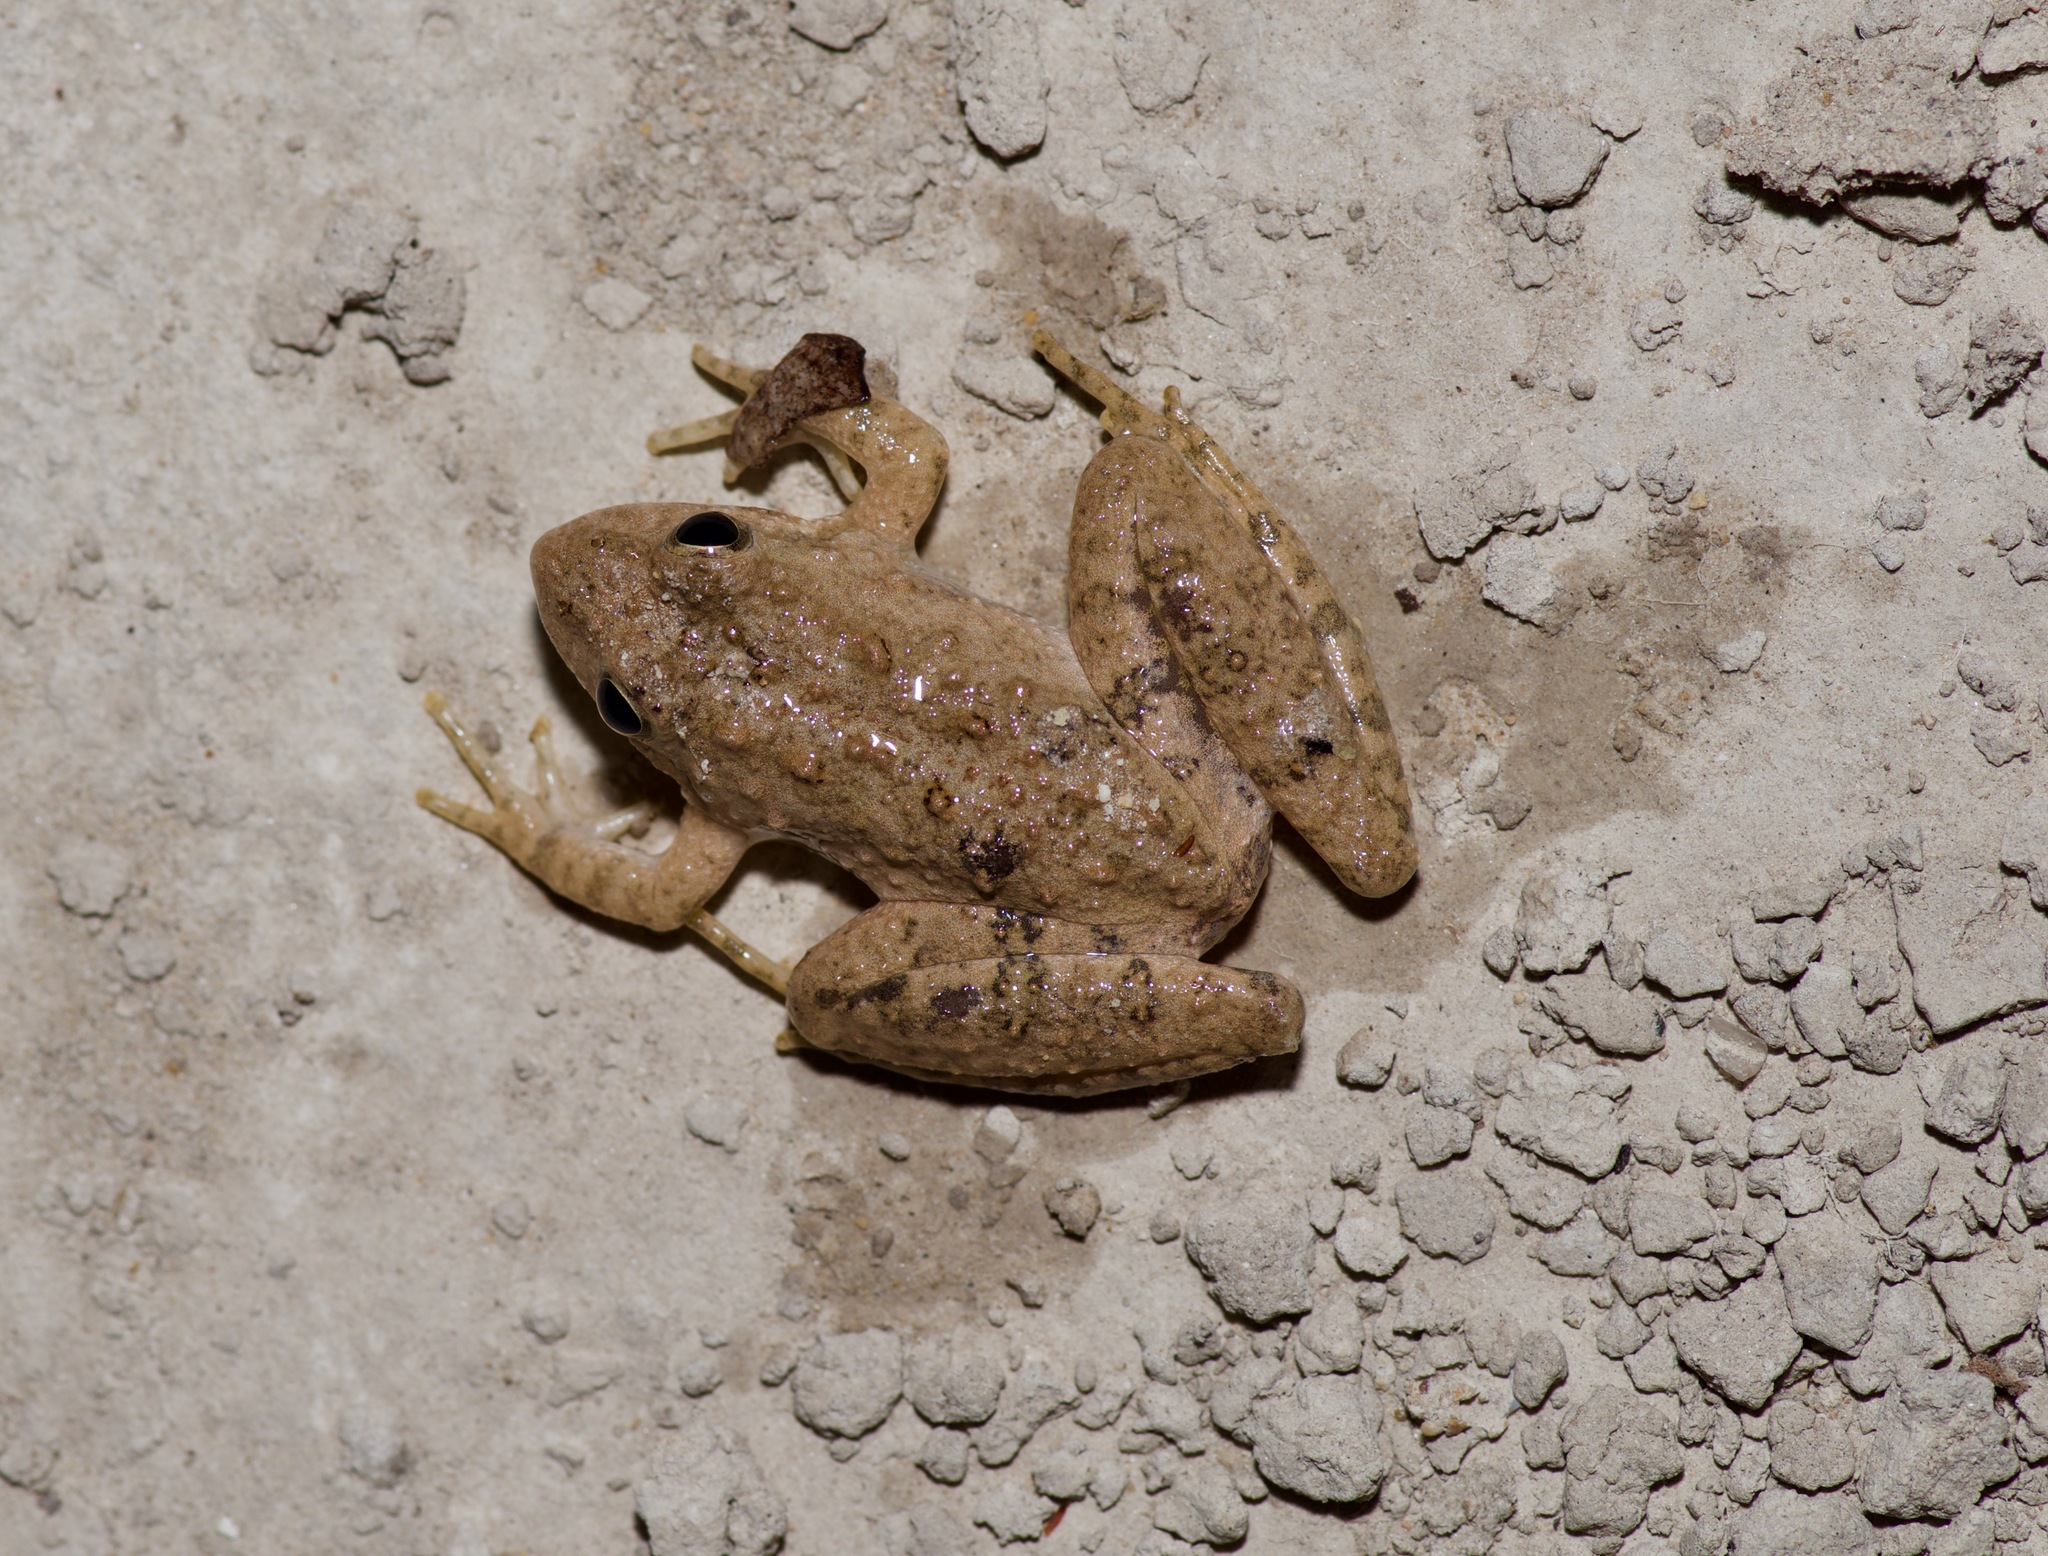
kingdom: Animalia
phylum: Chordata
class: Amphibia
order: Anura
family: Hylidae
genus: Acris
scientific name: Acris blanchardi
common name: Blanchard's cricket frog
